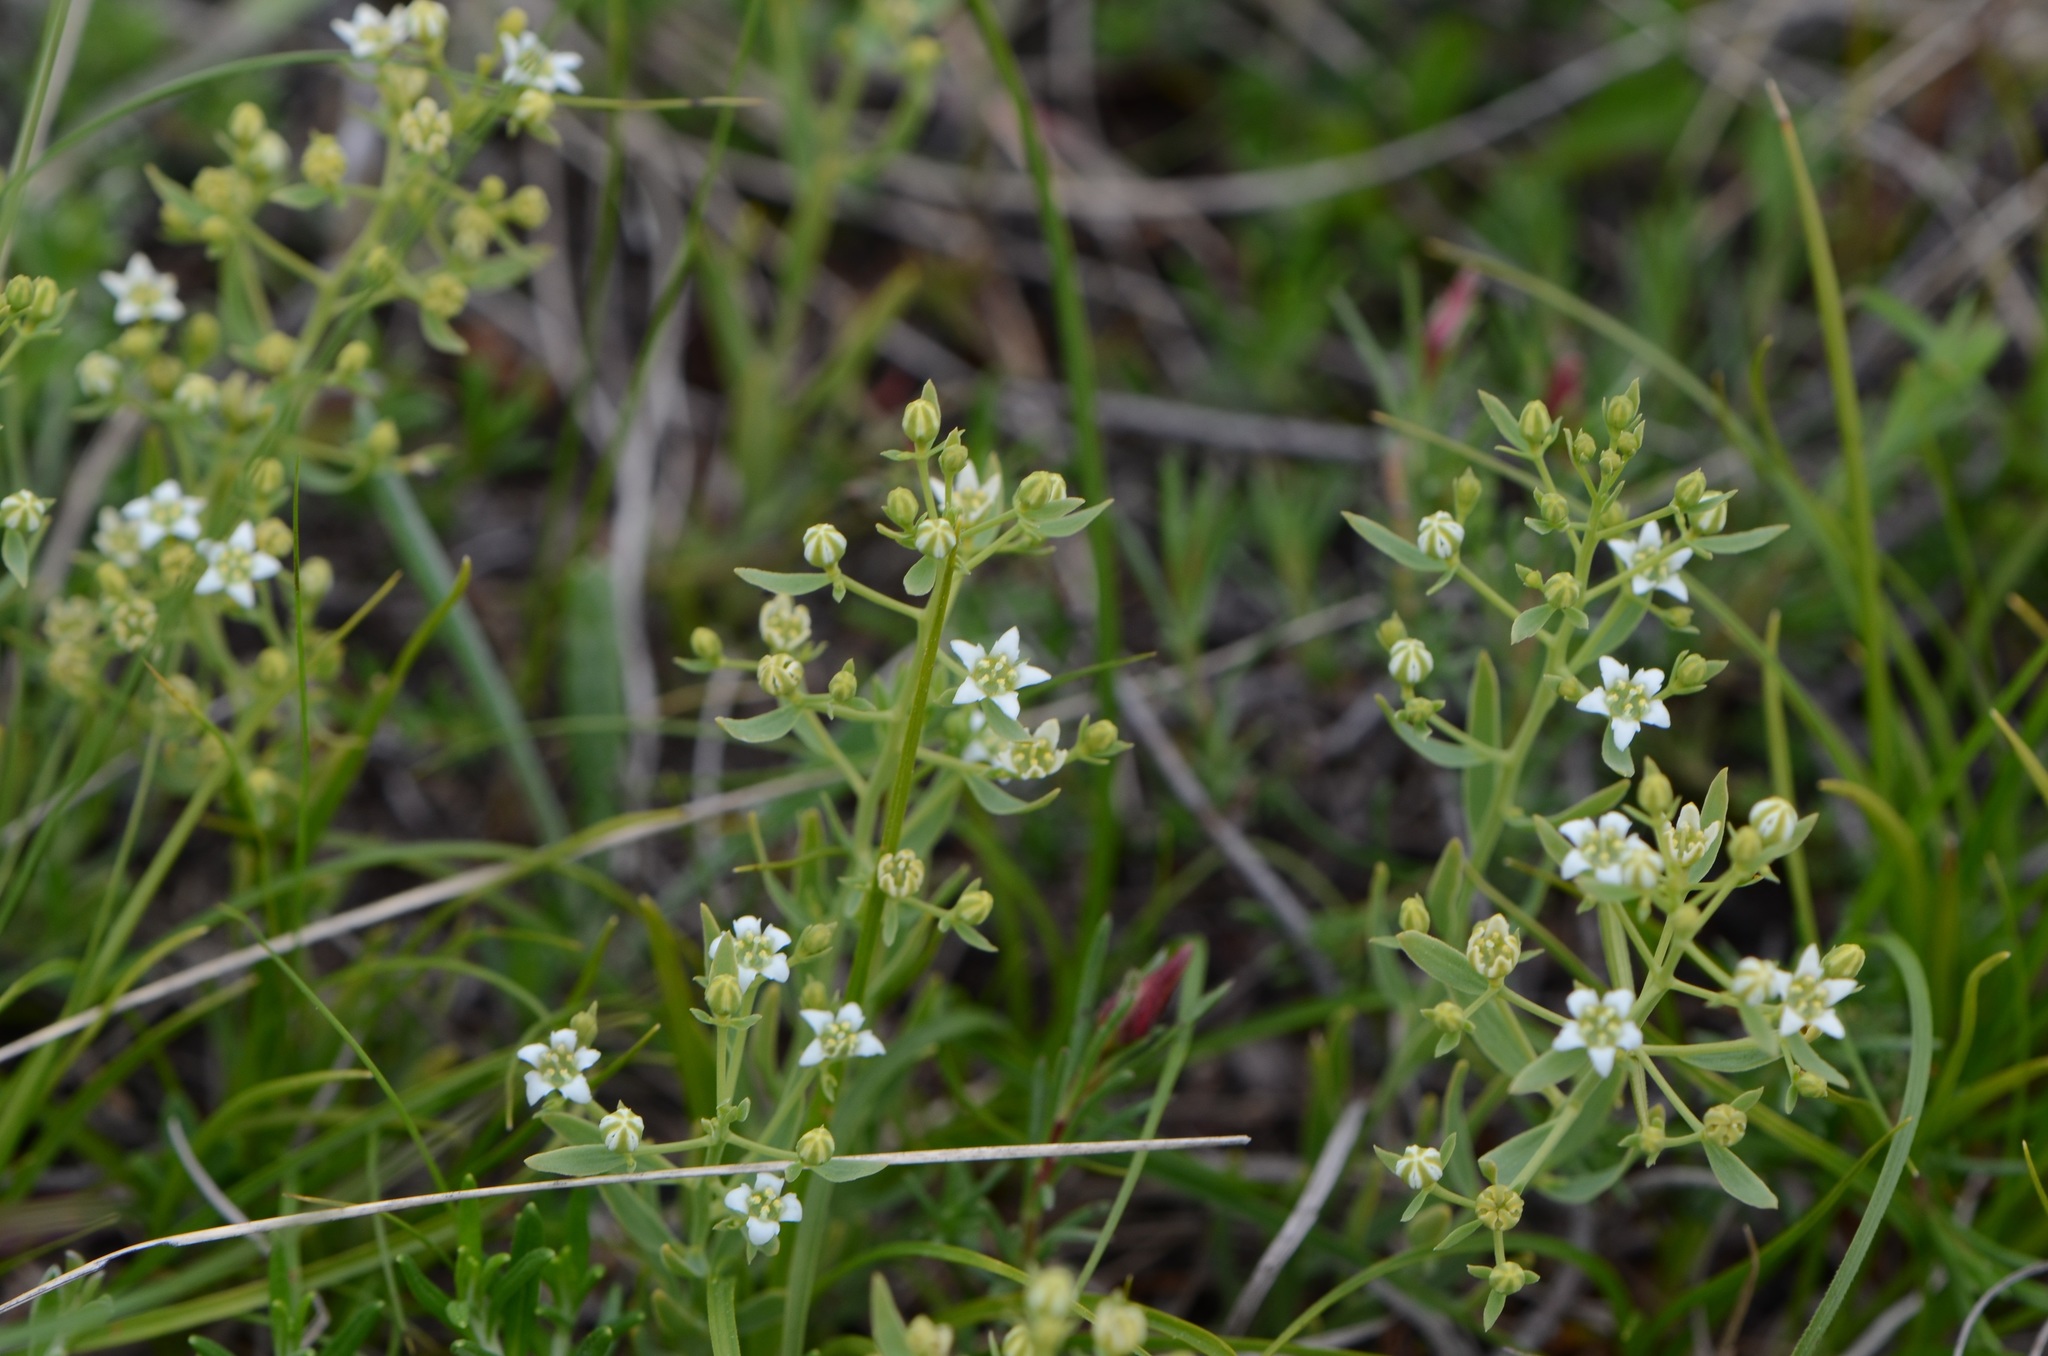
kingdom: Plantae
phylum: Tracheophyta
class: Magnoliopsida
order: Santalales
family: Thesiaceae
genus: Thesium
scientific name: Thesium linophyllon
